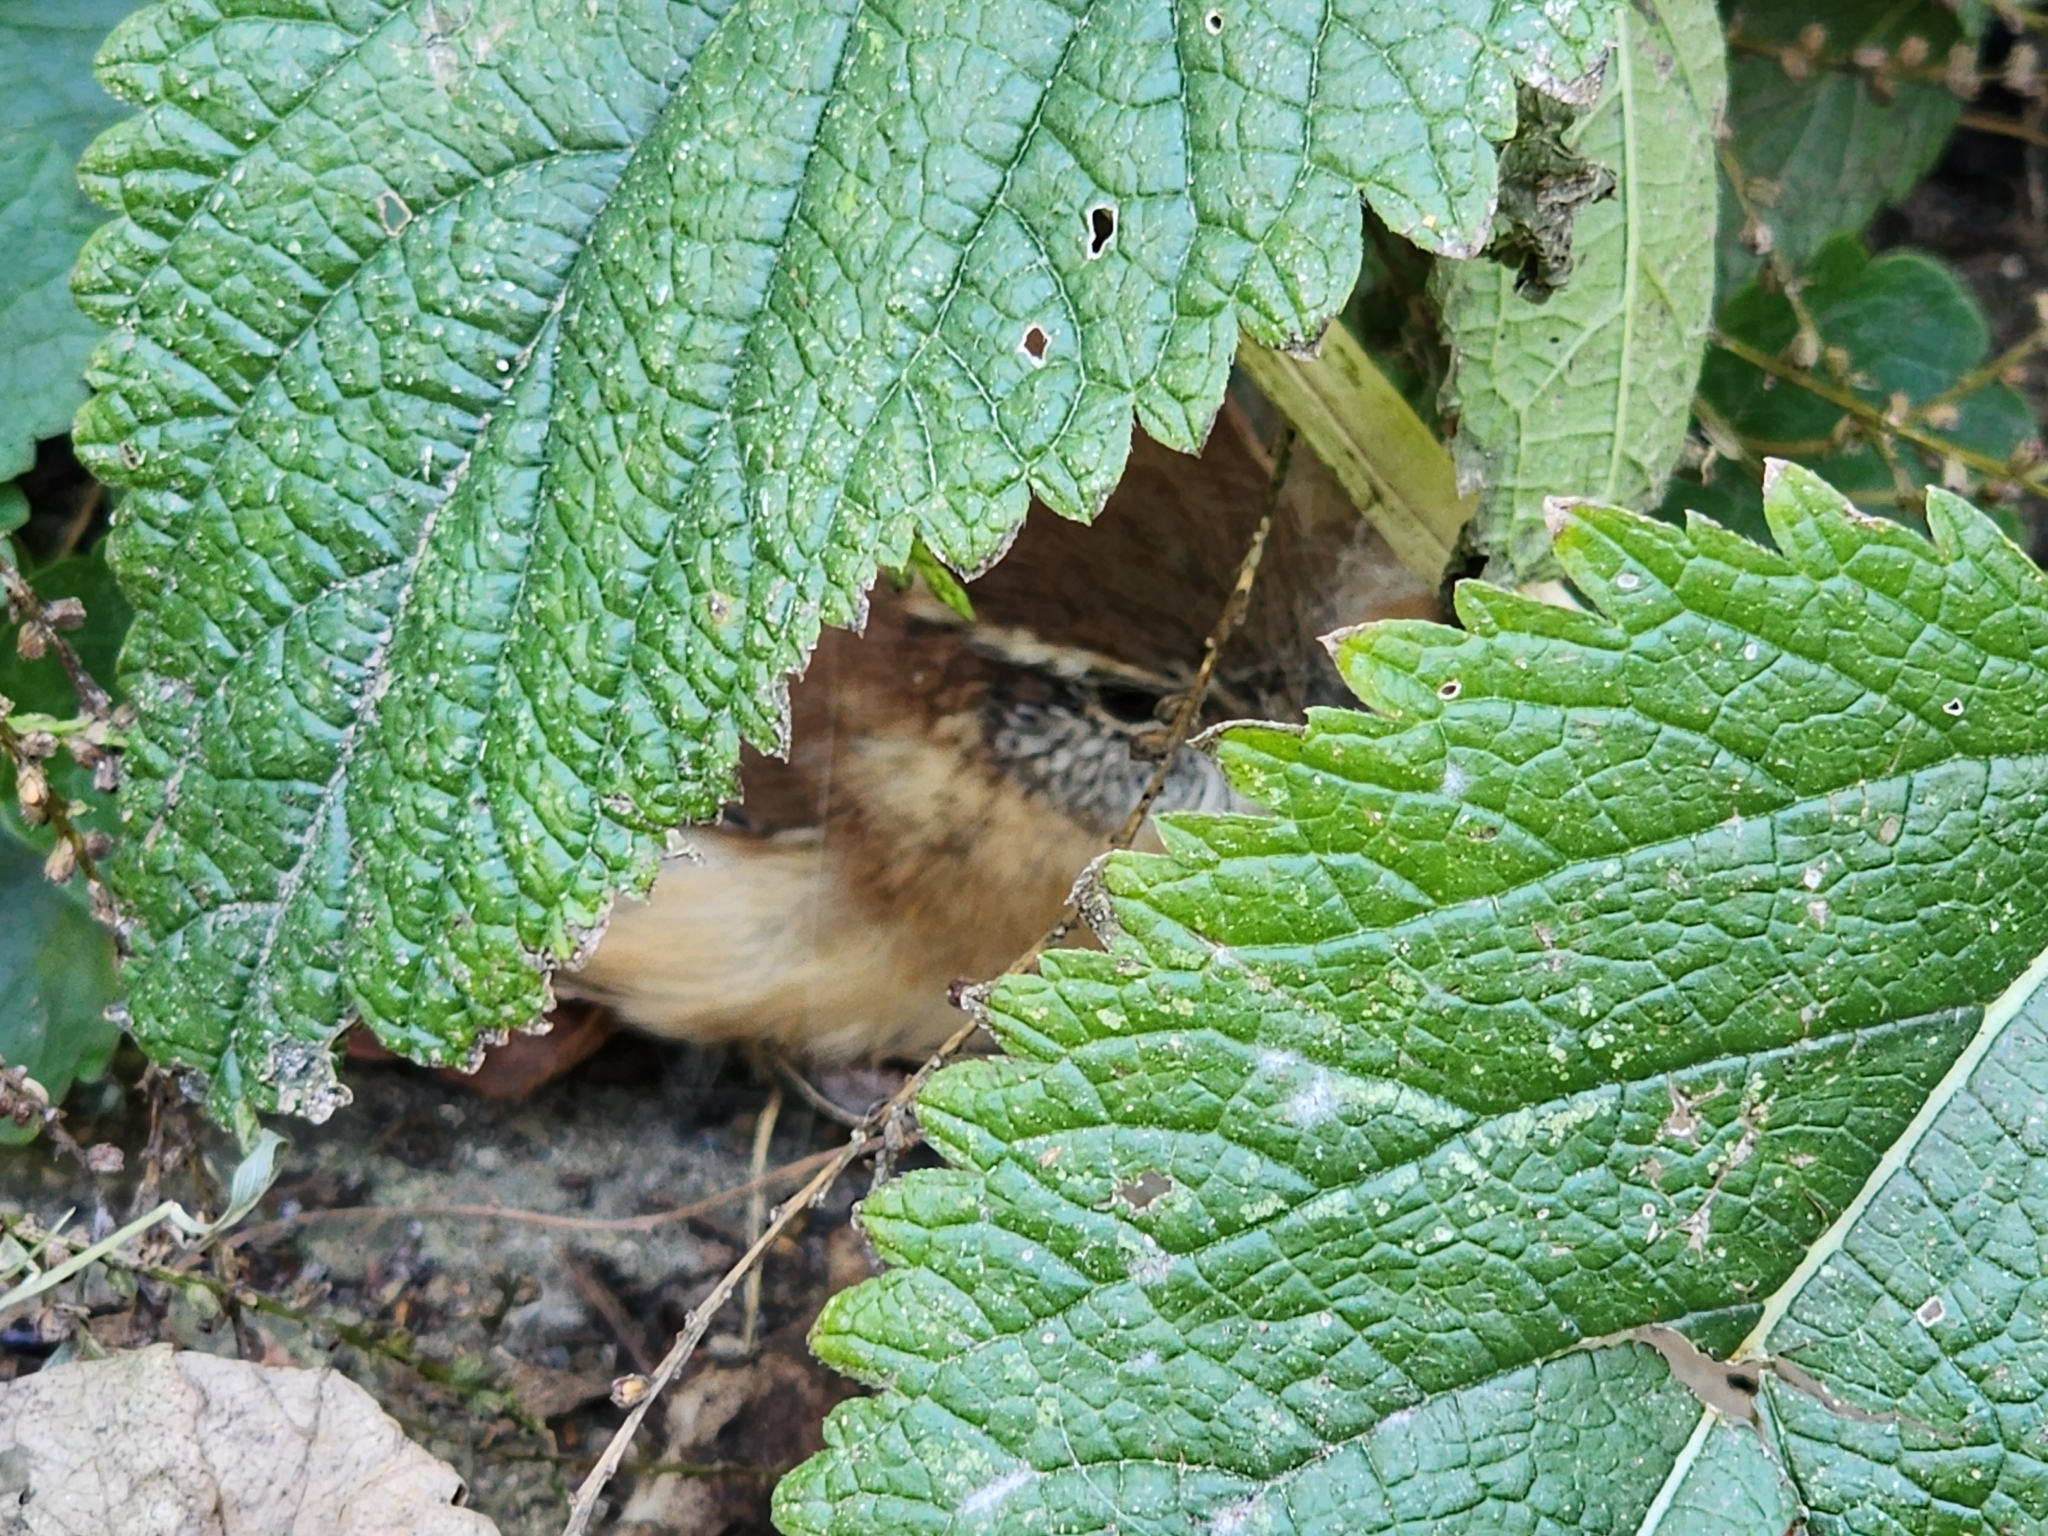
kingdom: Animalia
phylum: Chordata
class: Aves
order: Passeriformes
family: Troglodytidae
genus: Thryothorus
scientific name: Thryothorus ludovicianus
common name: Carolina wren
